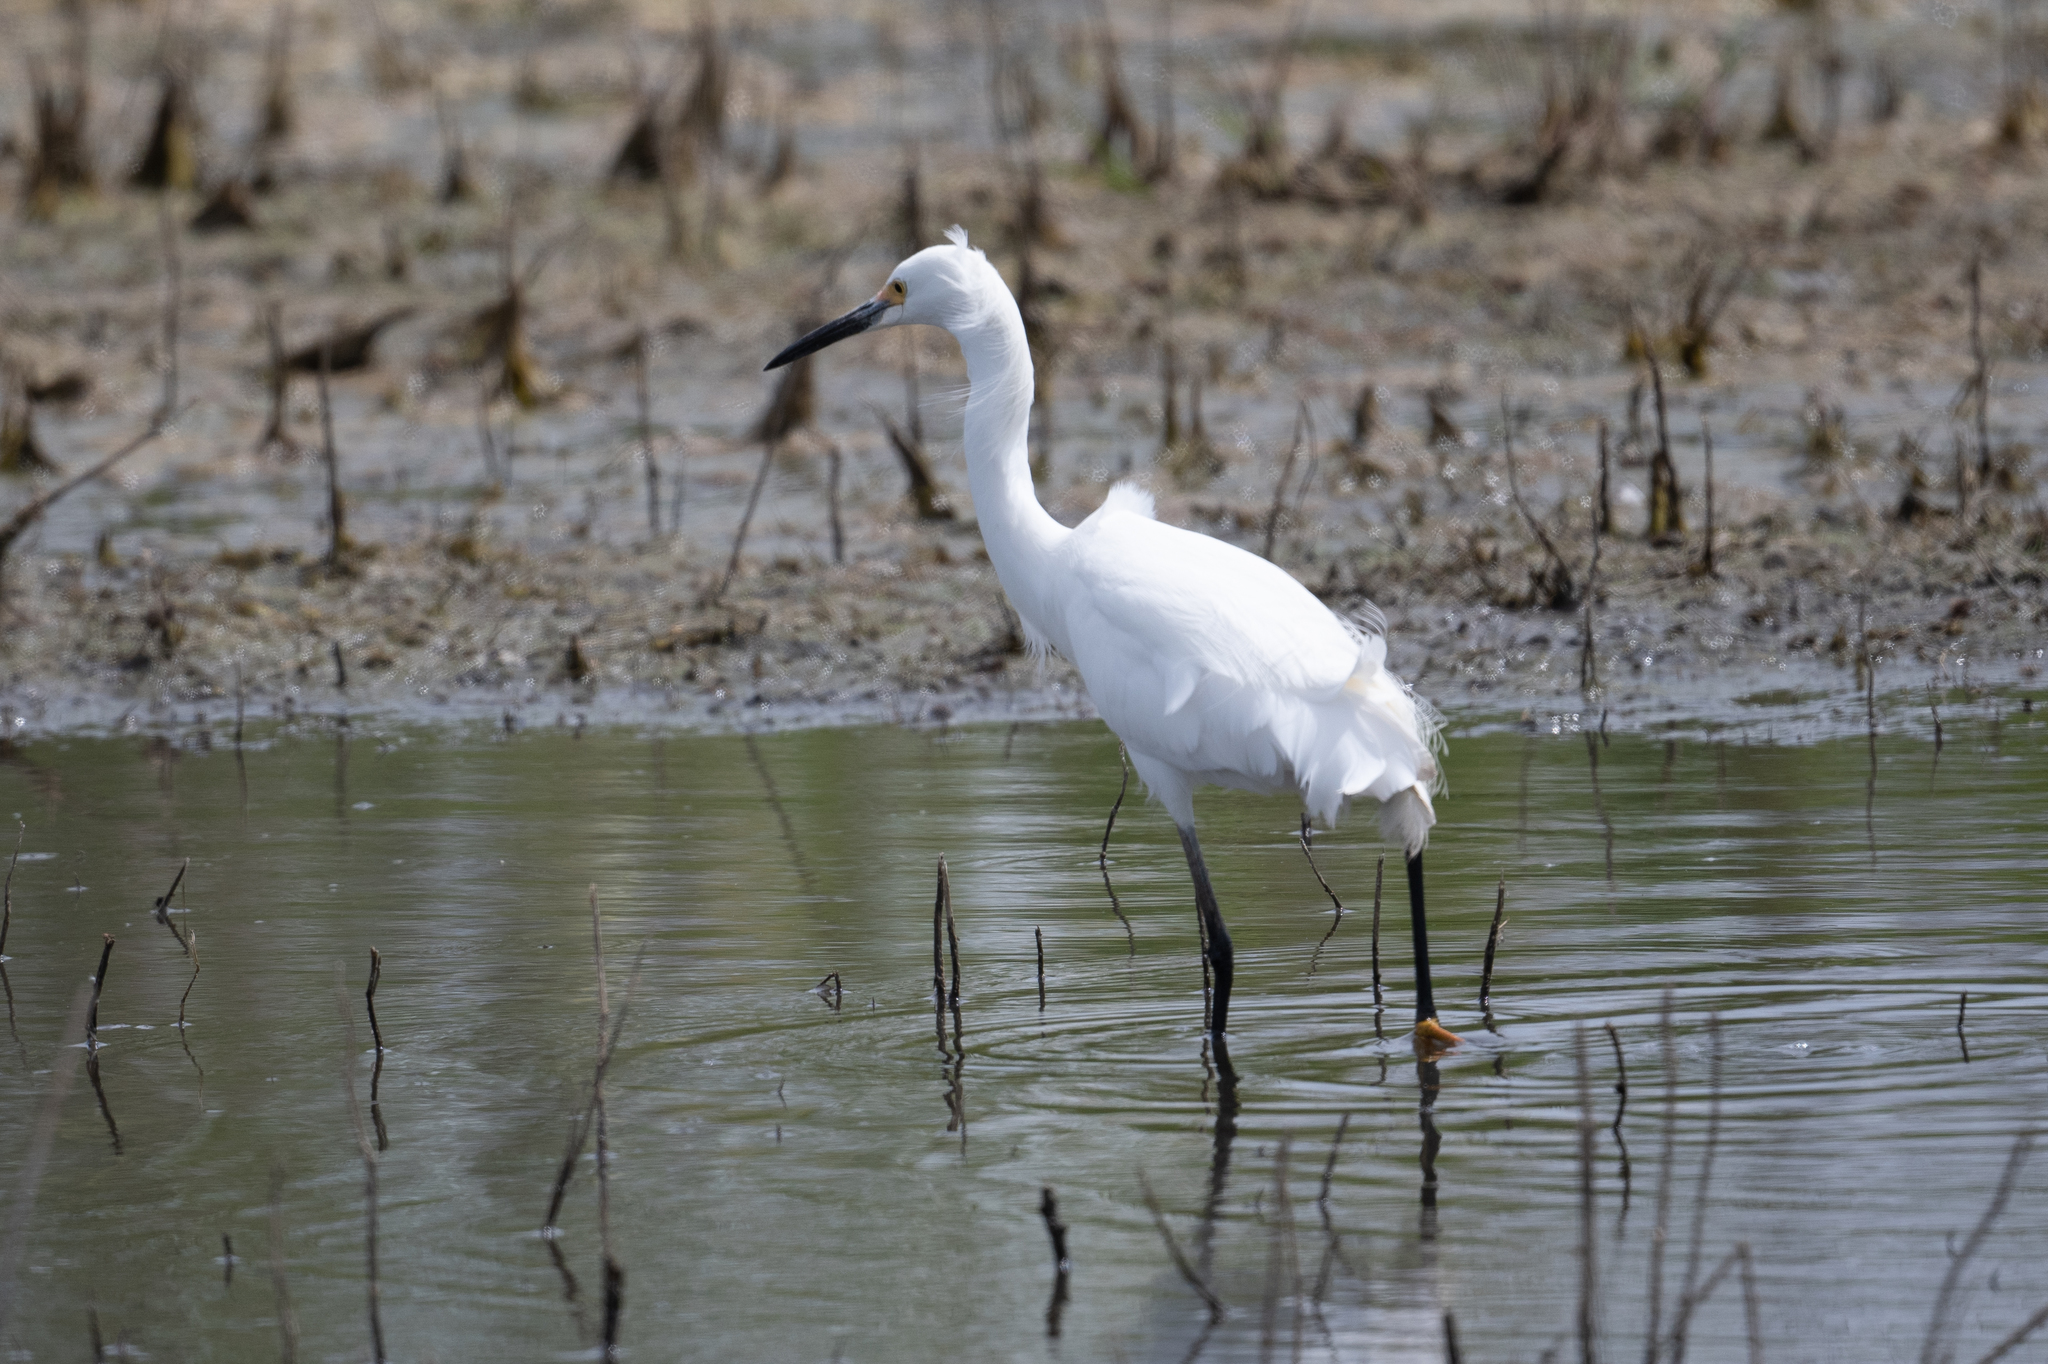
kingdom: Animalia
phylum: Chordata
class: Aves
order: Pelecaniformes
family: Ardeidae
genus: Egretta
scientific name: Egretta thula
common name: Snowy egret
